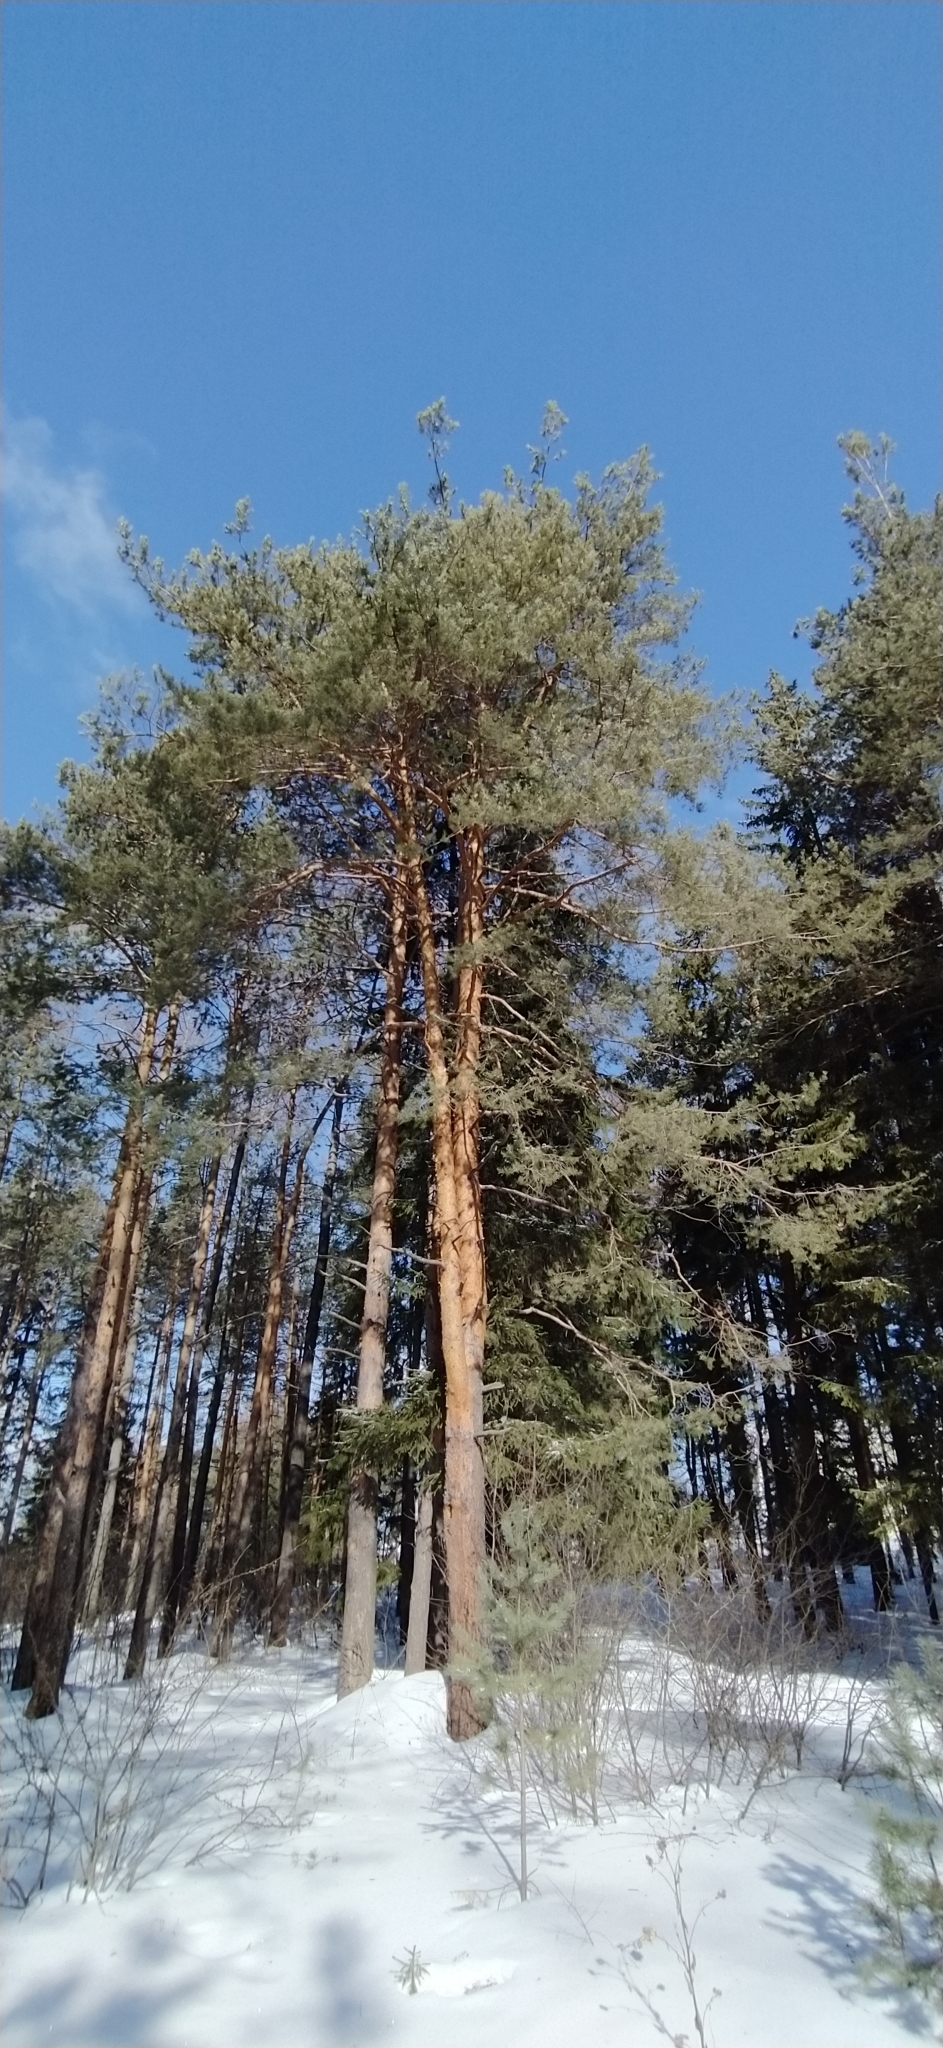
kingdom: Plantae
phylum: Tracheophyta
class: Pinopsida
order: Pinales
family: Pinaceae
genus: Pinus
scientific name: Pinus sylvestris
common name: Scots pine
